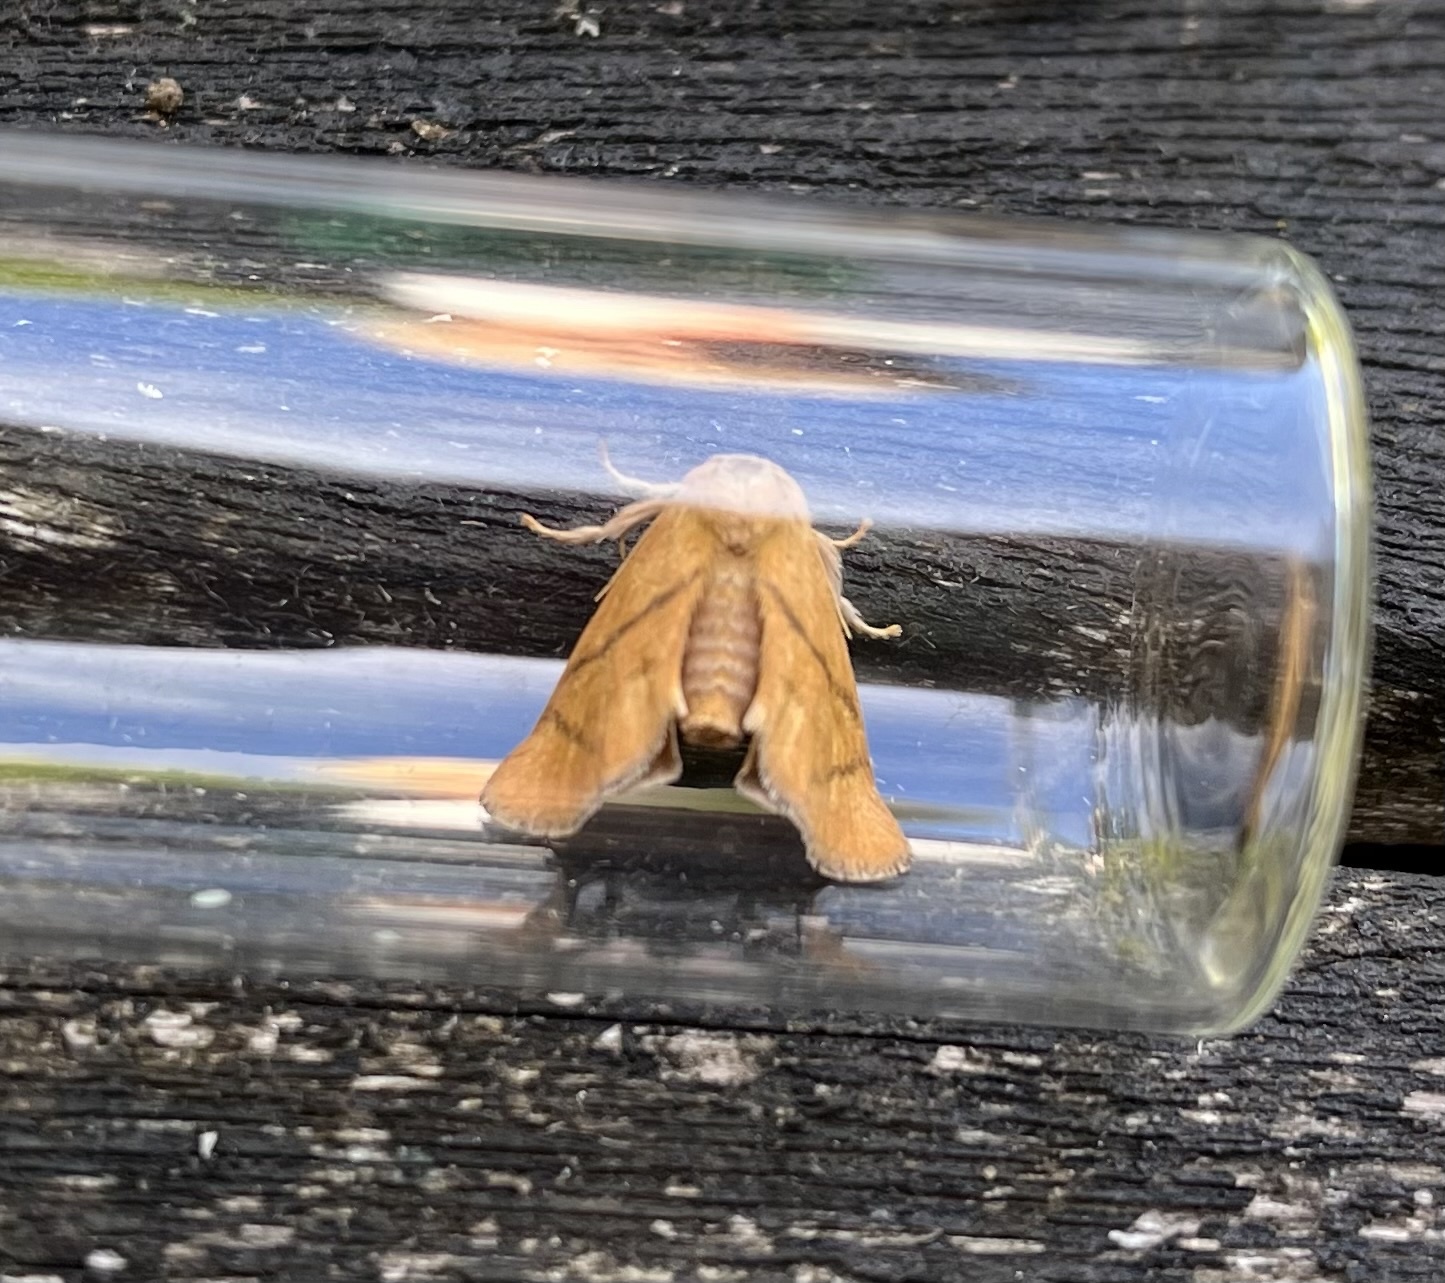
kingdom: Animalia
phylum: Arthropoda
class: Insecta
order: Lepidoptera
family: Limacodidae
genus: Apoda
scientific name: Apoda limacodes
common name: Festoon
